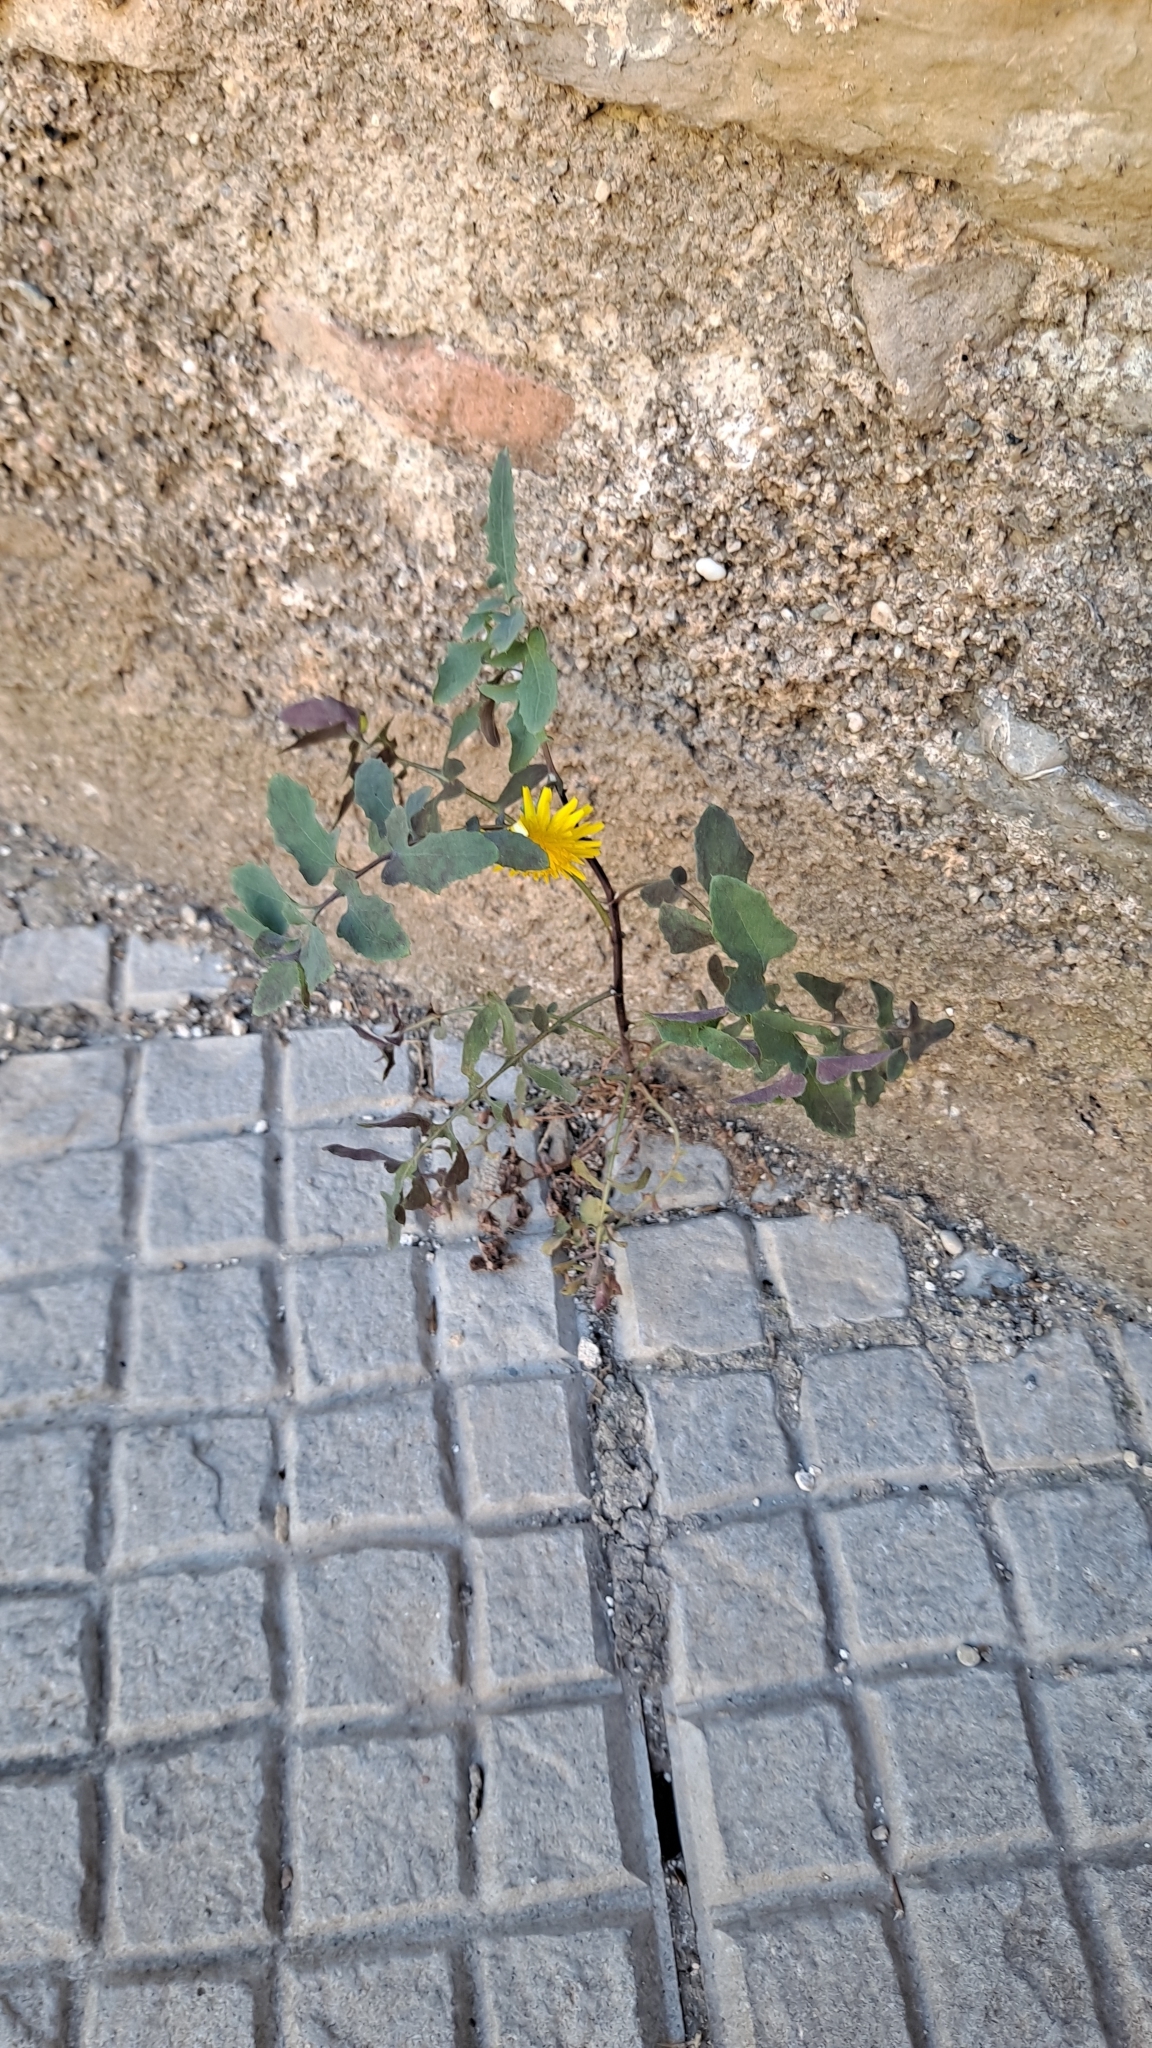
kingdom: Plantae
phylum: Tracheophyta
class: Magnoliopsida
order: Asterales
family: Asteraceae
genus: Sonchus
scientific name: Sonchus tenerrimus
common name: Clammy sowthistle
